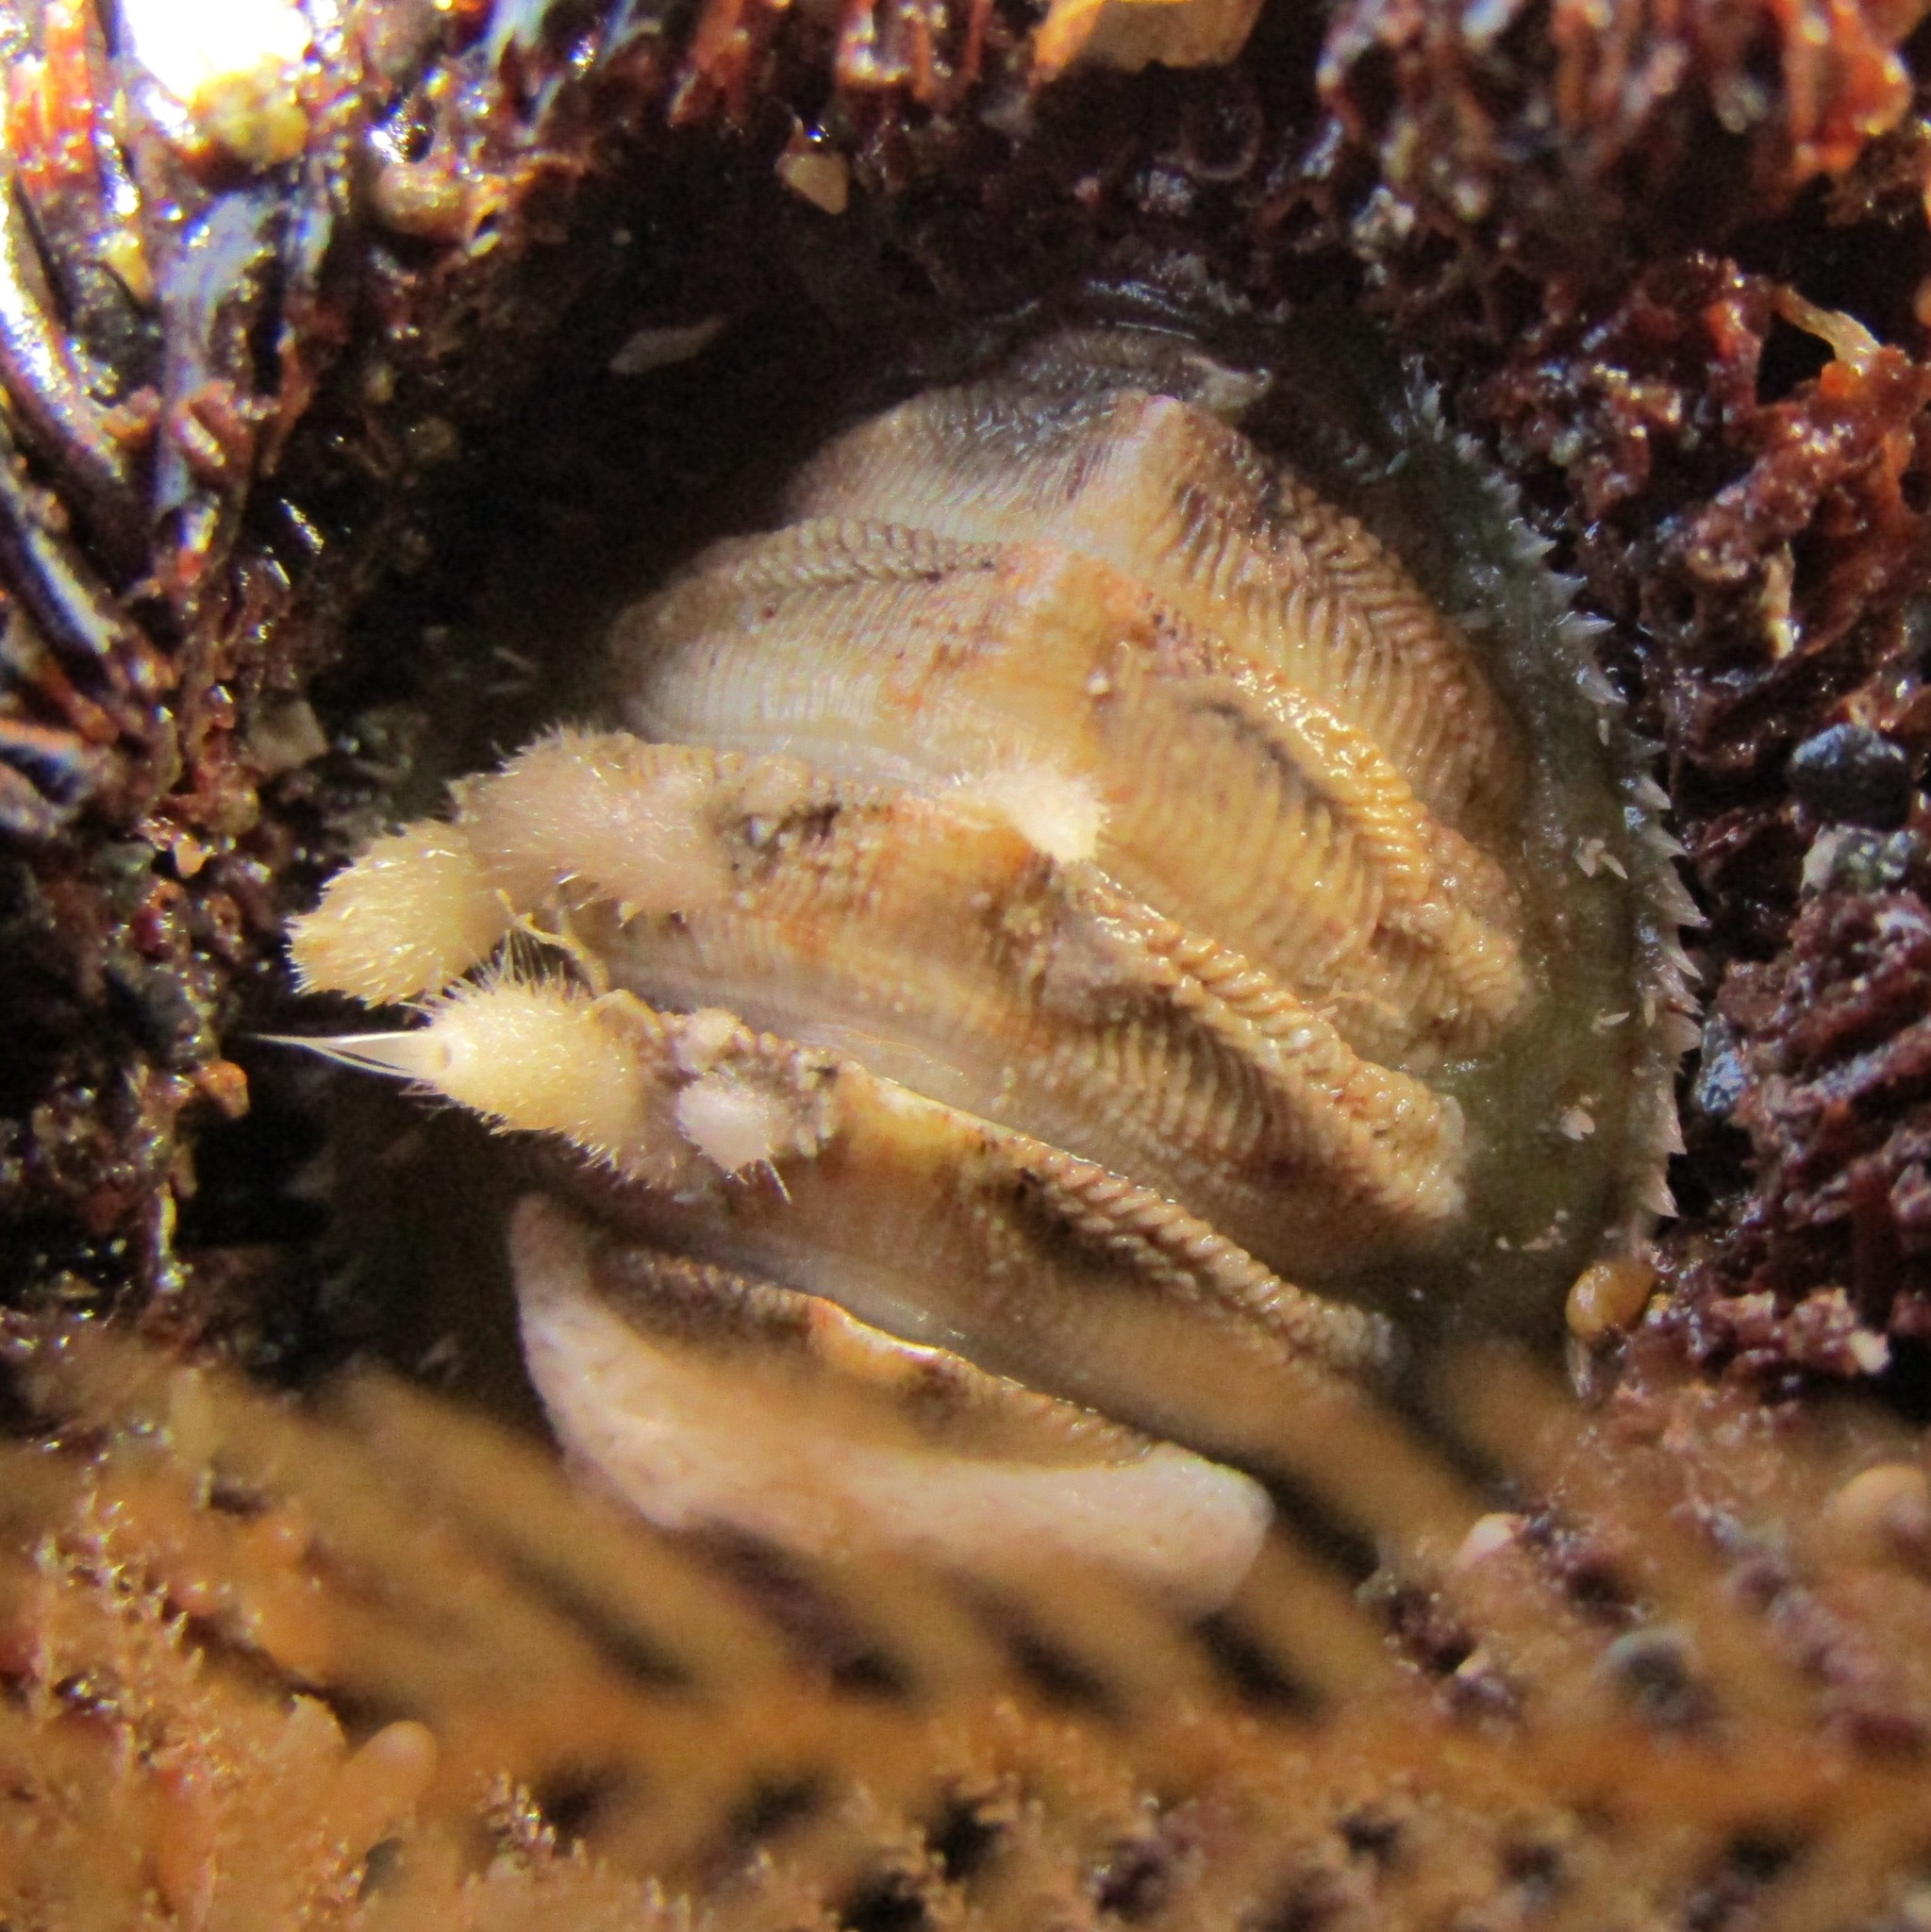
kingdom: Animalia
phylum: Mollusca
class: Polyplacophora
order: Chitonida
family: Mopaliidae
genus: Plaxiphora
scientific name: Plaxiphora egregia
